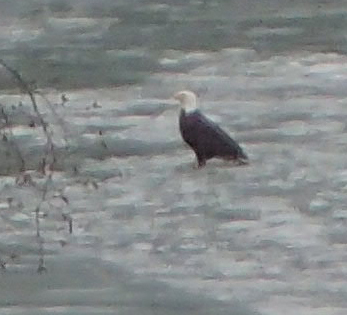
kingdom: Animalia
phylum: Chordata
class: Aves
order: Accipitriformes
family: Accipitridae
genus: Haliaeetus
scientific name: Haliaeetus leucocephalus
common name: Bald eagle
